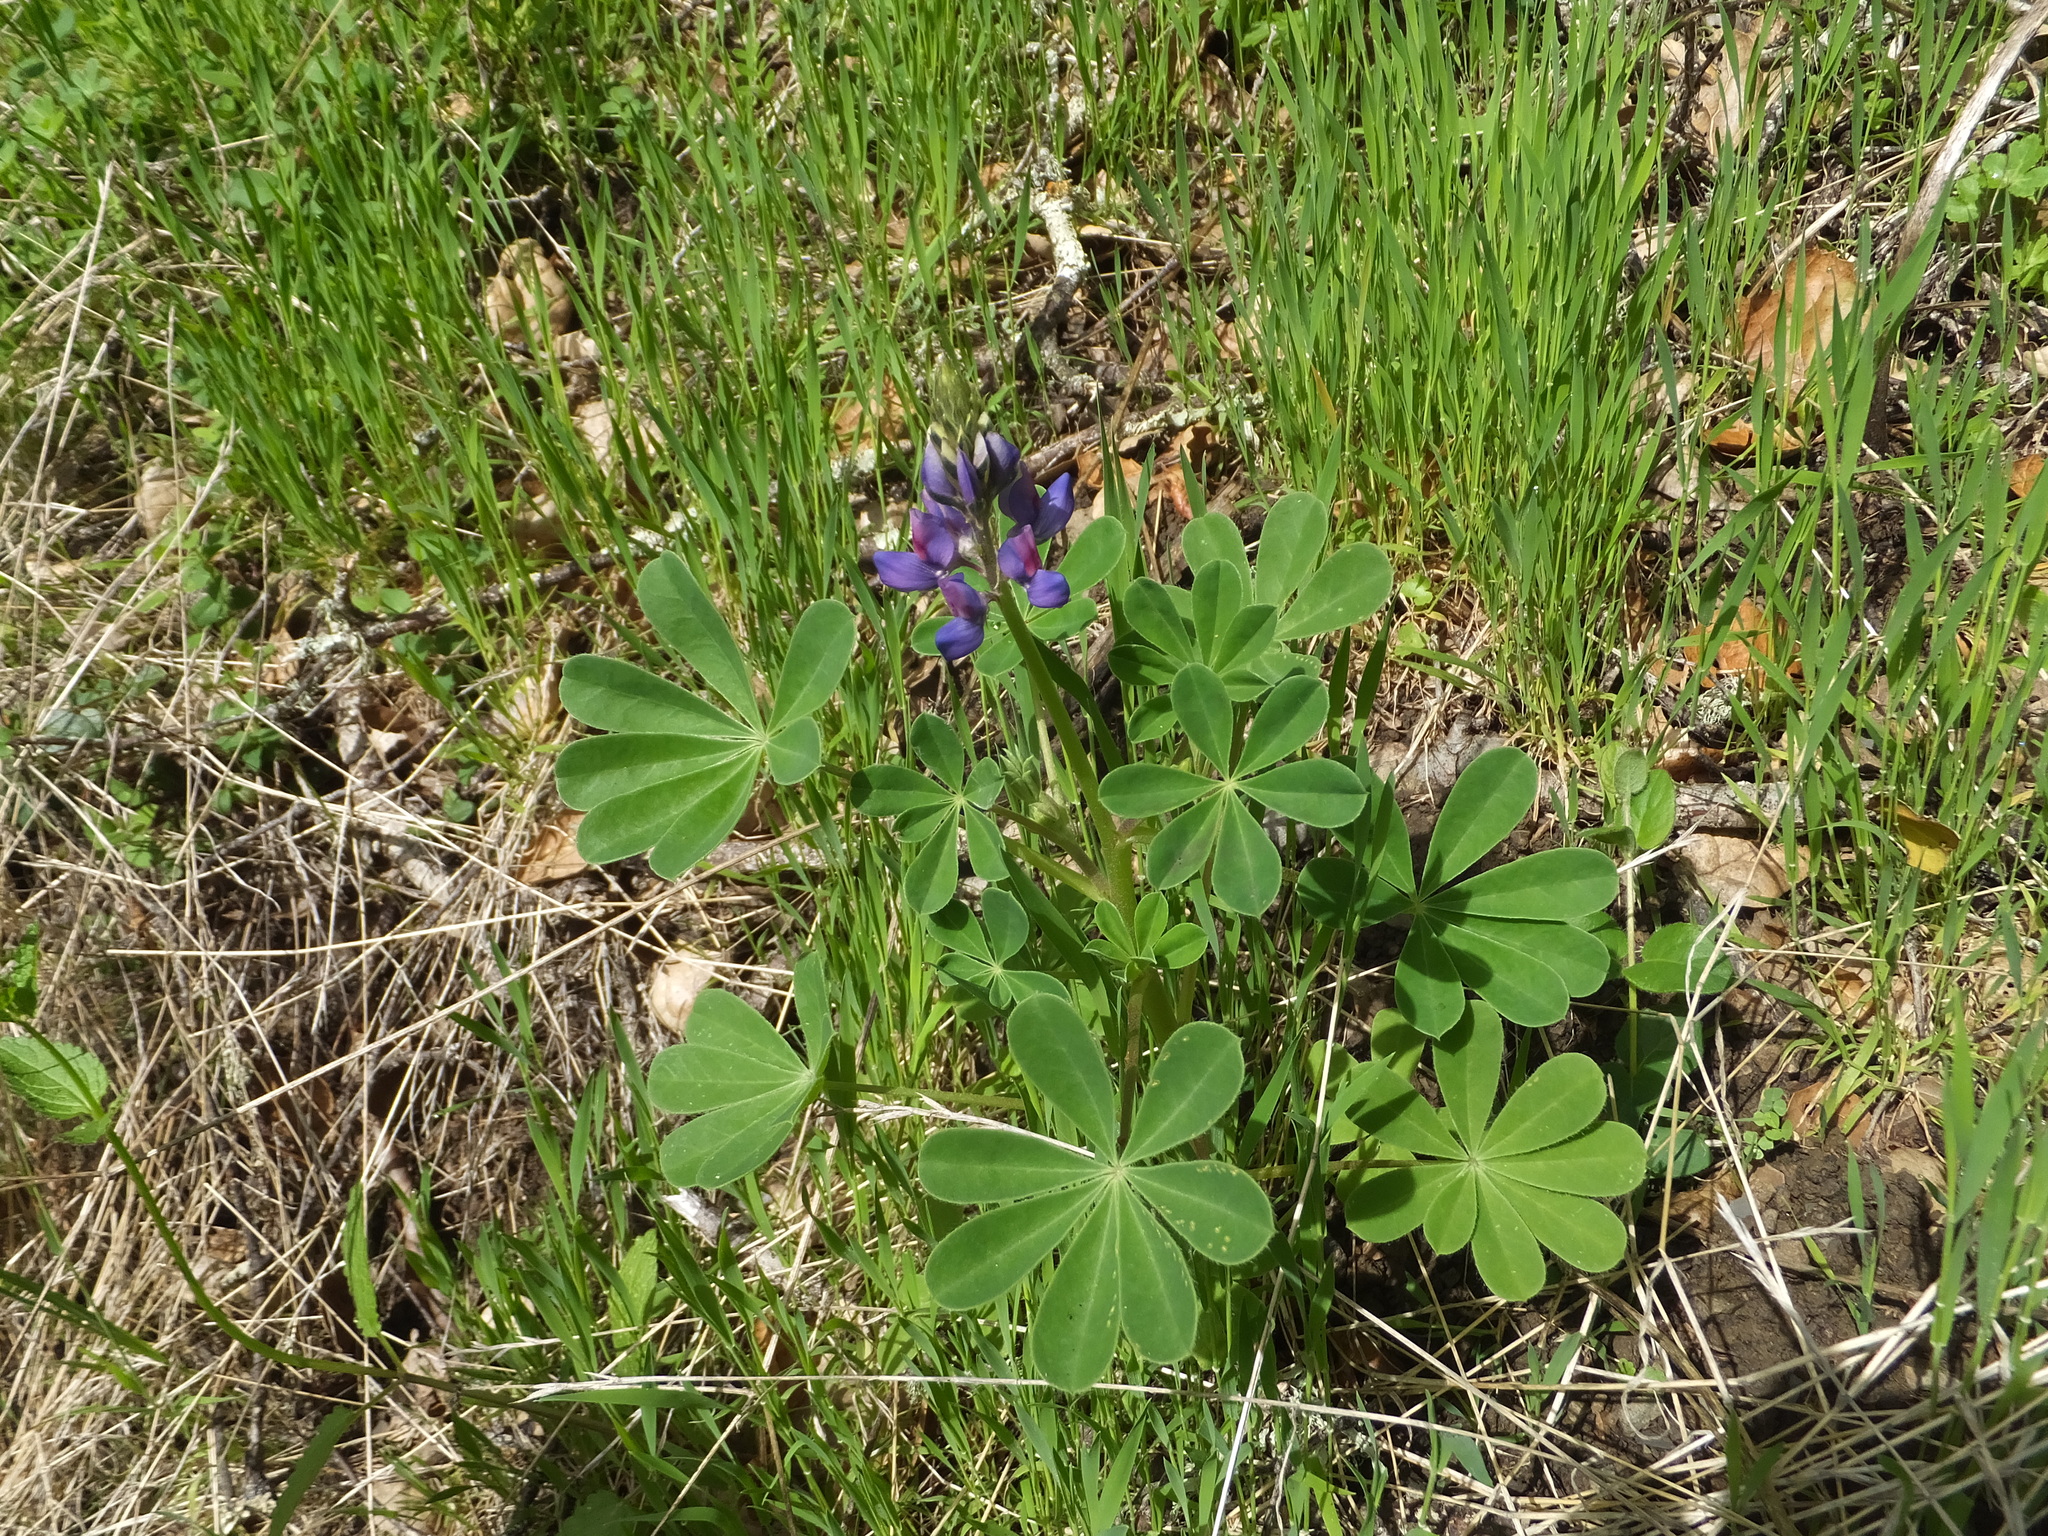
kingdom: Plantae
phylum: Tracheophyta
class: Magnoliopsida
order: Fabales
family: Fabaceae
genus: Lupinus
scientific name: Lupinus succulentus
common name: Arroyo lupine
